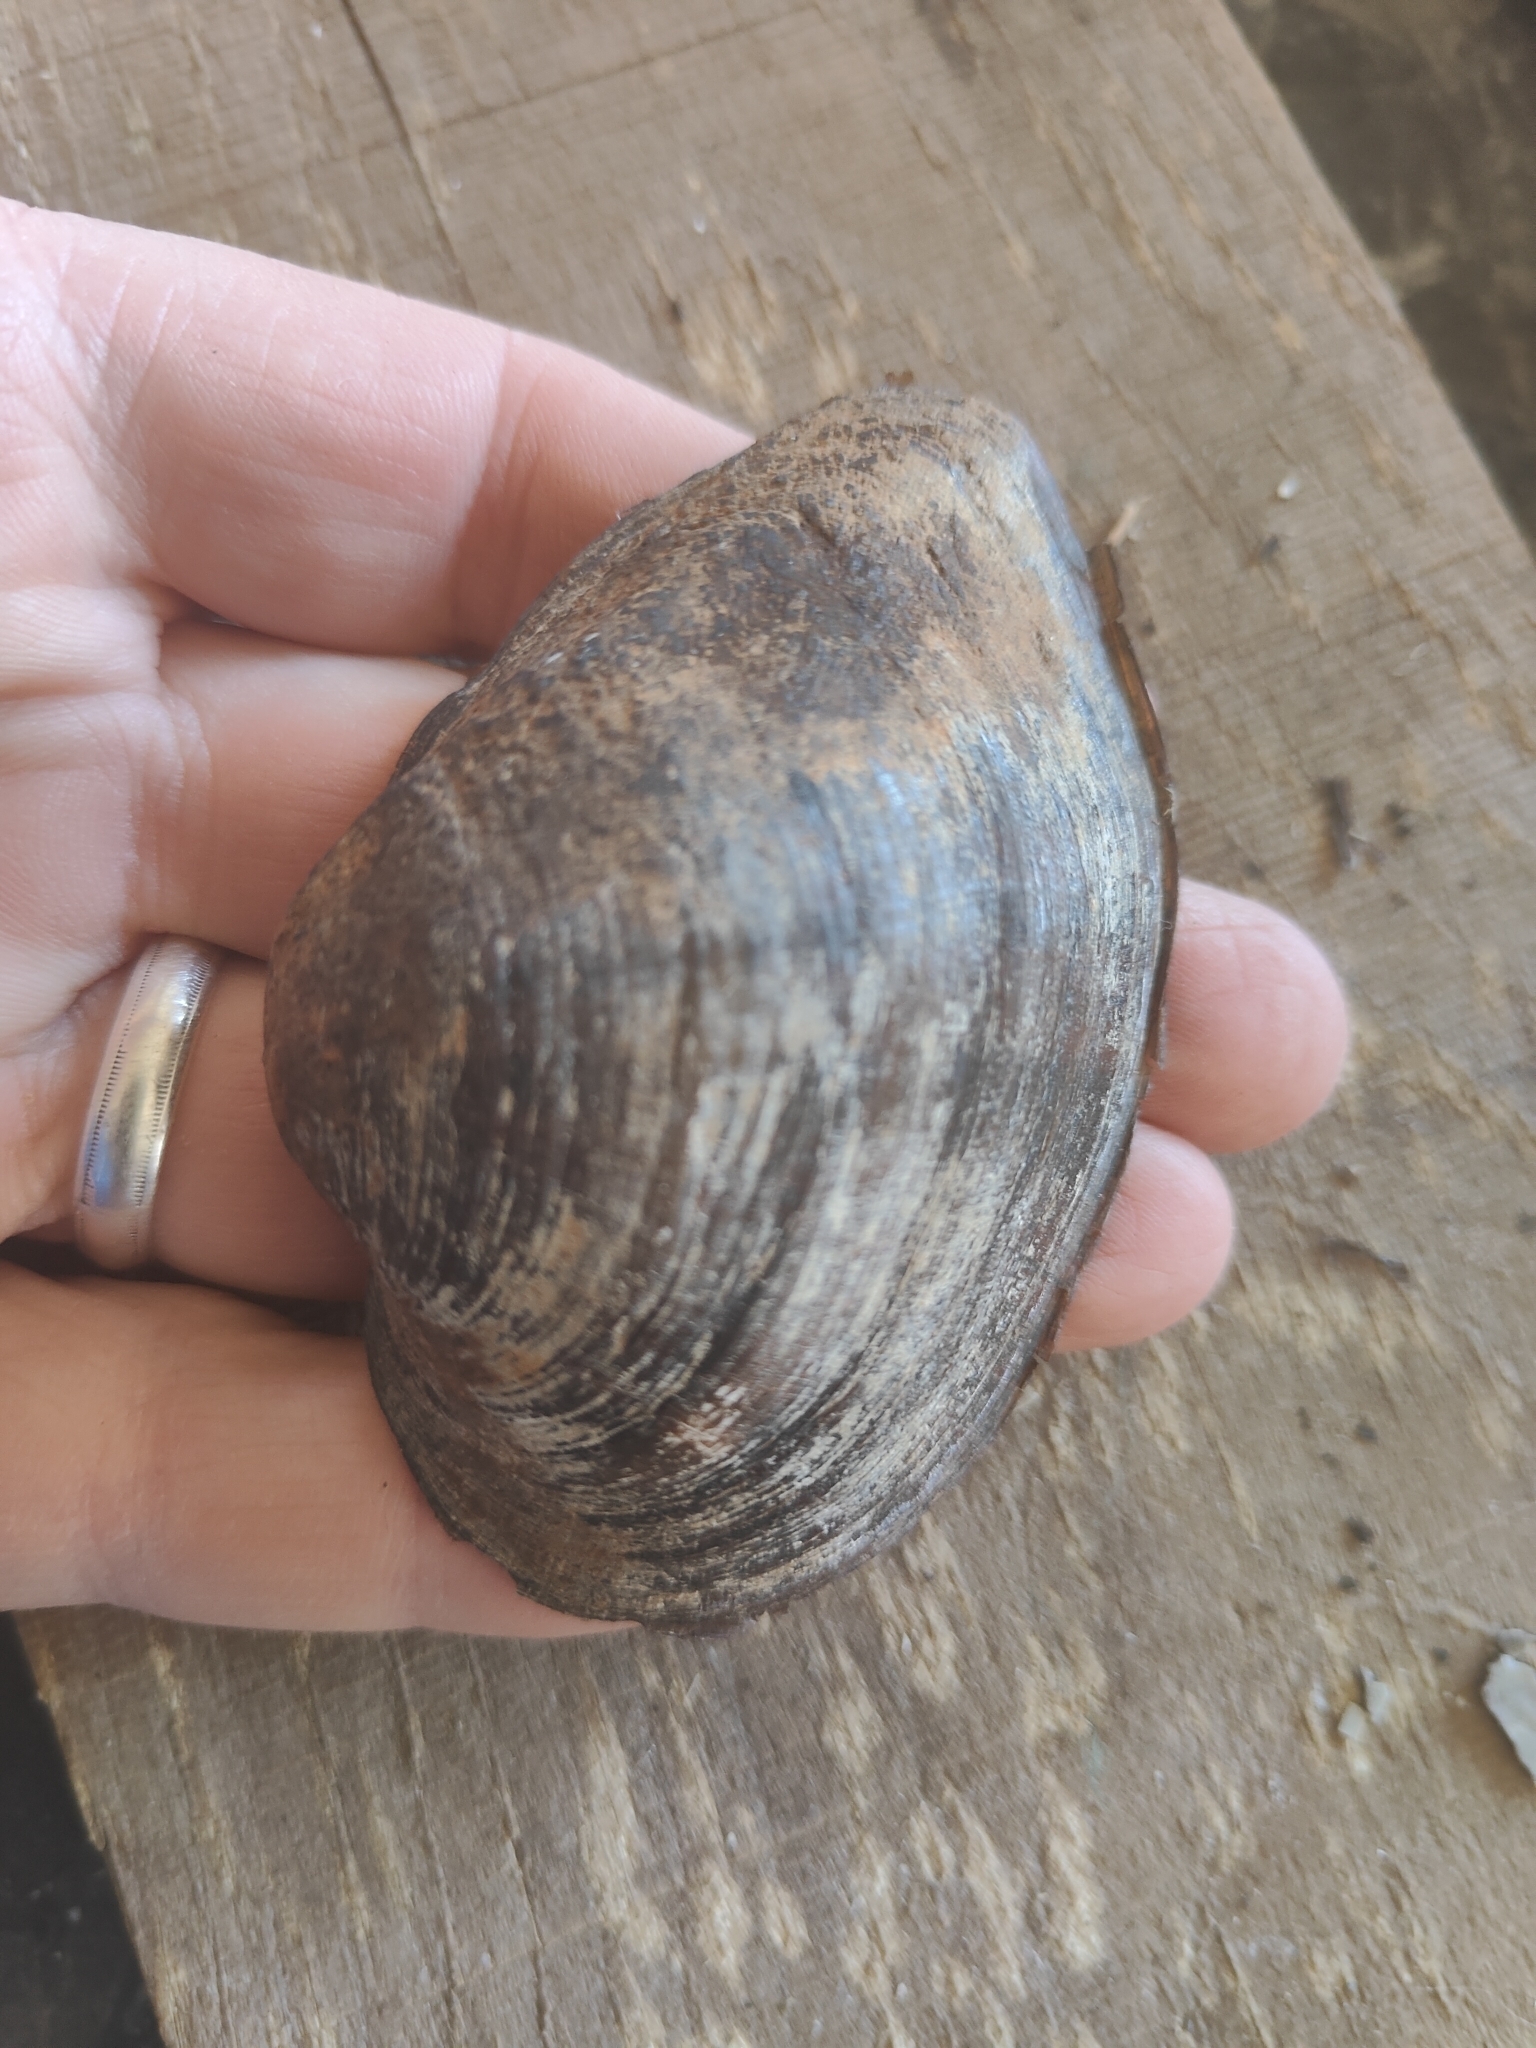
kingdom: Animalia
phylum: Mollusca
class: Bivalvia
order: Unionida
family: Unionidae
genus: Truncilla
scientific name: Truncilla truncata
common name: Deertoe
